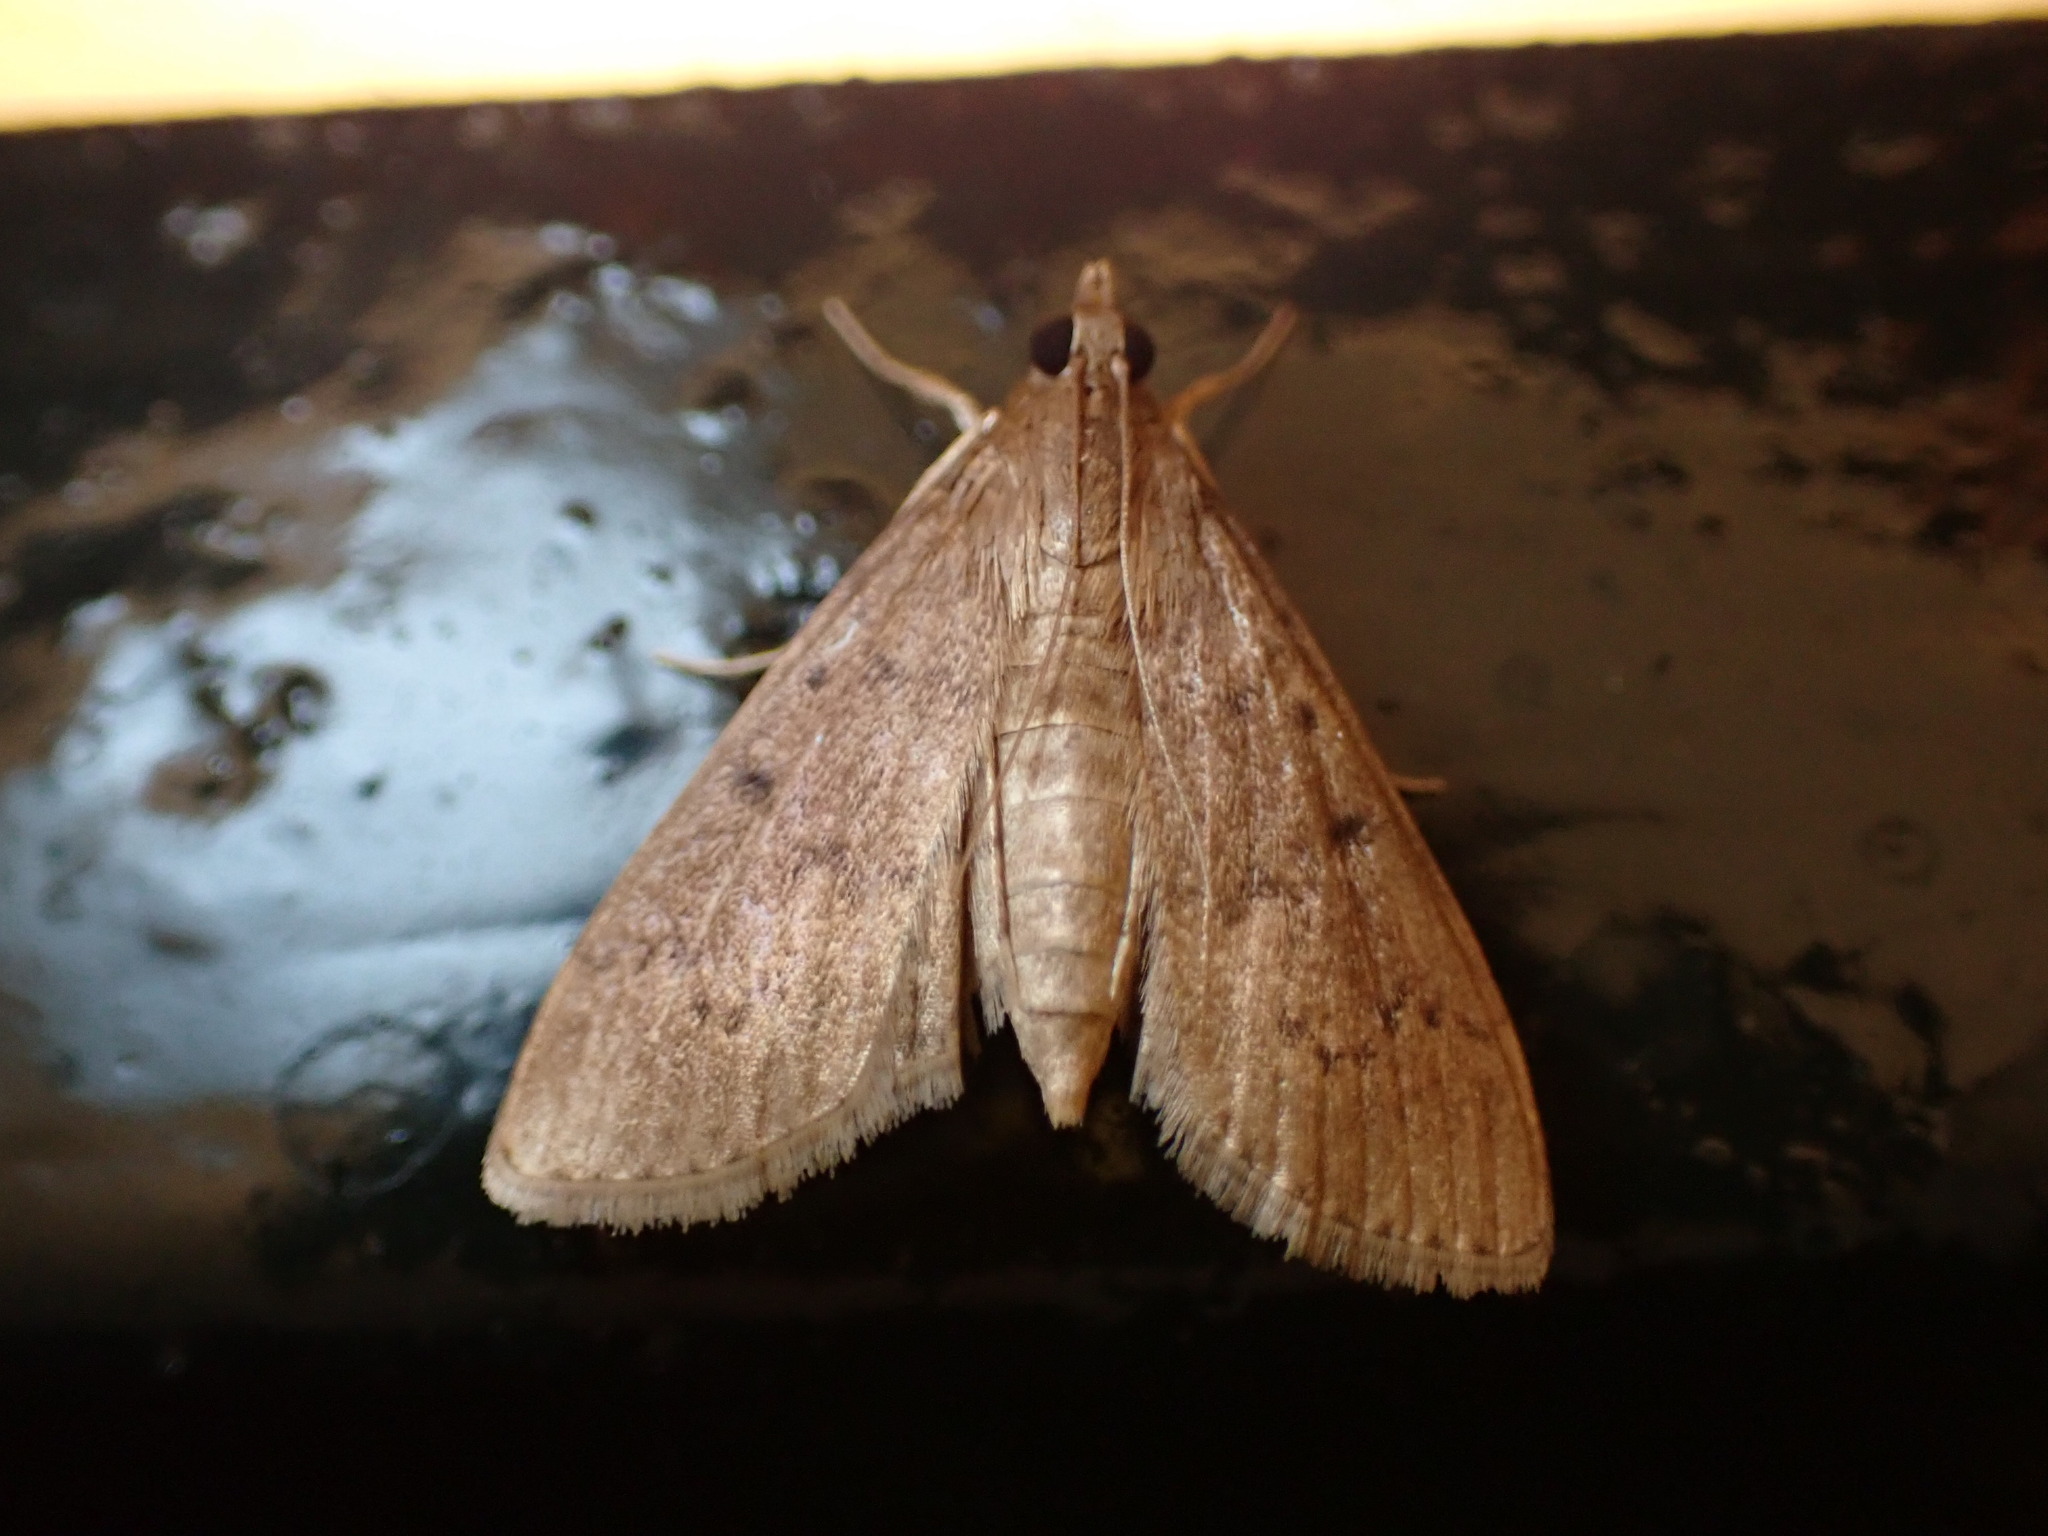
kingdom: Animalia
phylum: Arthropoda
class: Insecta
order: Lepidoptera
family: Crambidae
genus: Herpetogramma
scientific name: Herpetogramma licarsisalis
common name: Grass webworm
